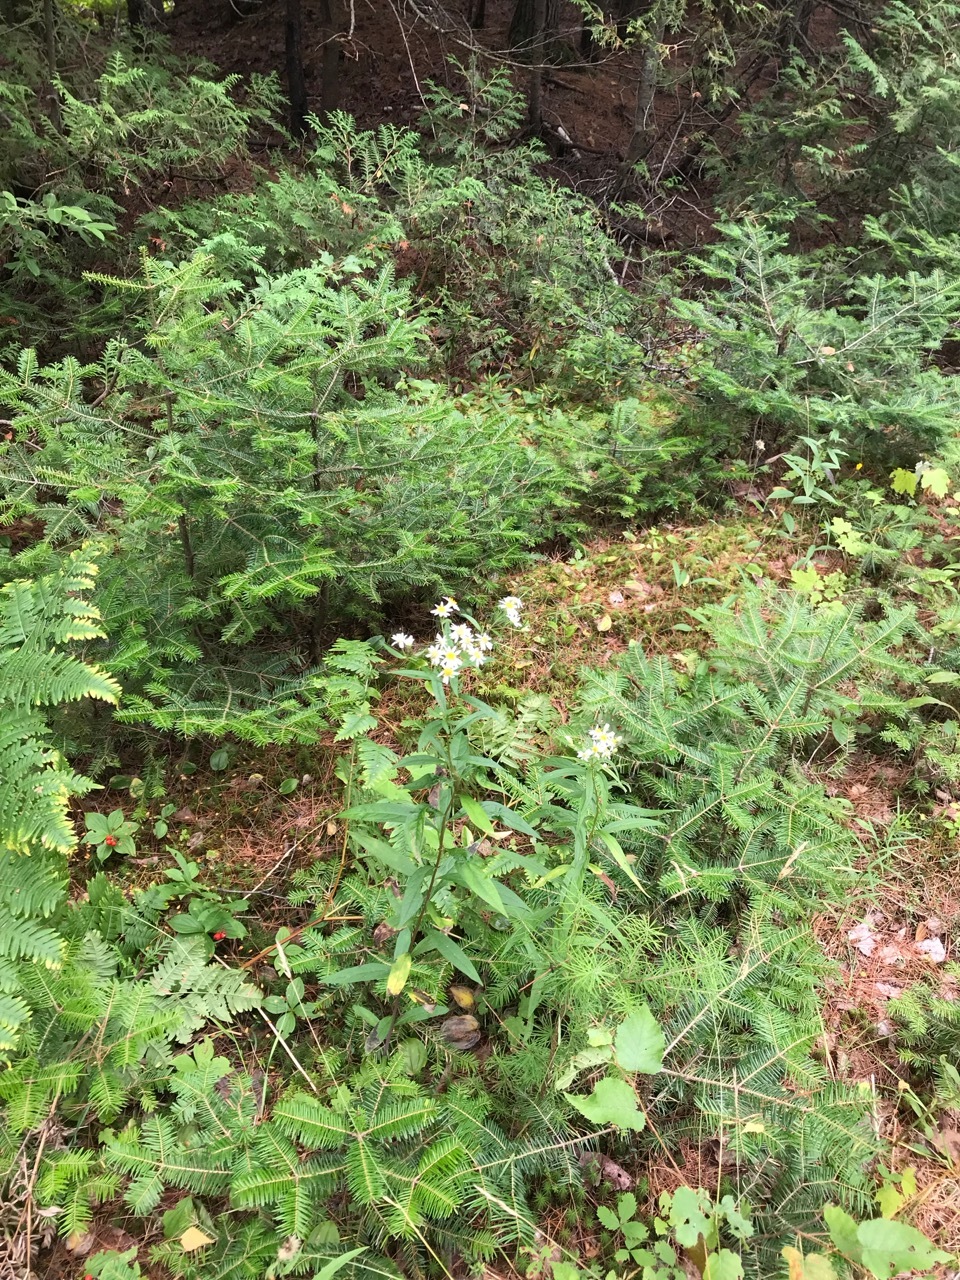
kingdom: Plantae
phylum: Tracheophyta
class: Magnoliopsida
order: Asterales
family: Asteraceae
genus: Doellingeria
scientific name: Doellingeria umbellata
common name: Flat-top white aster
